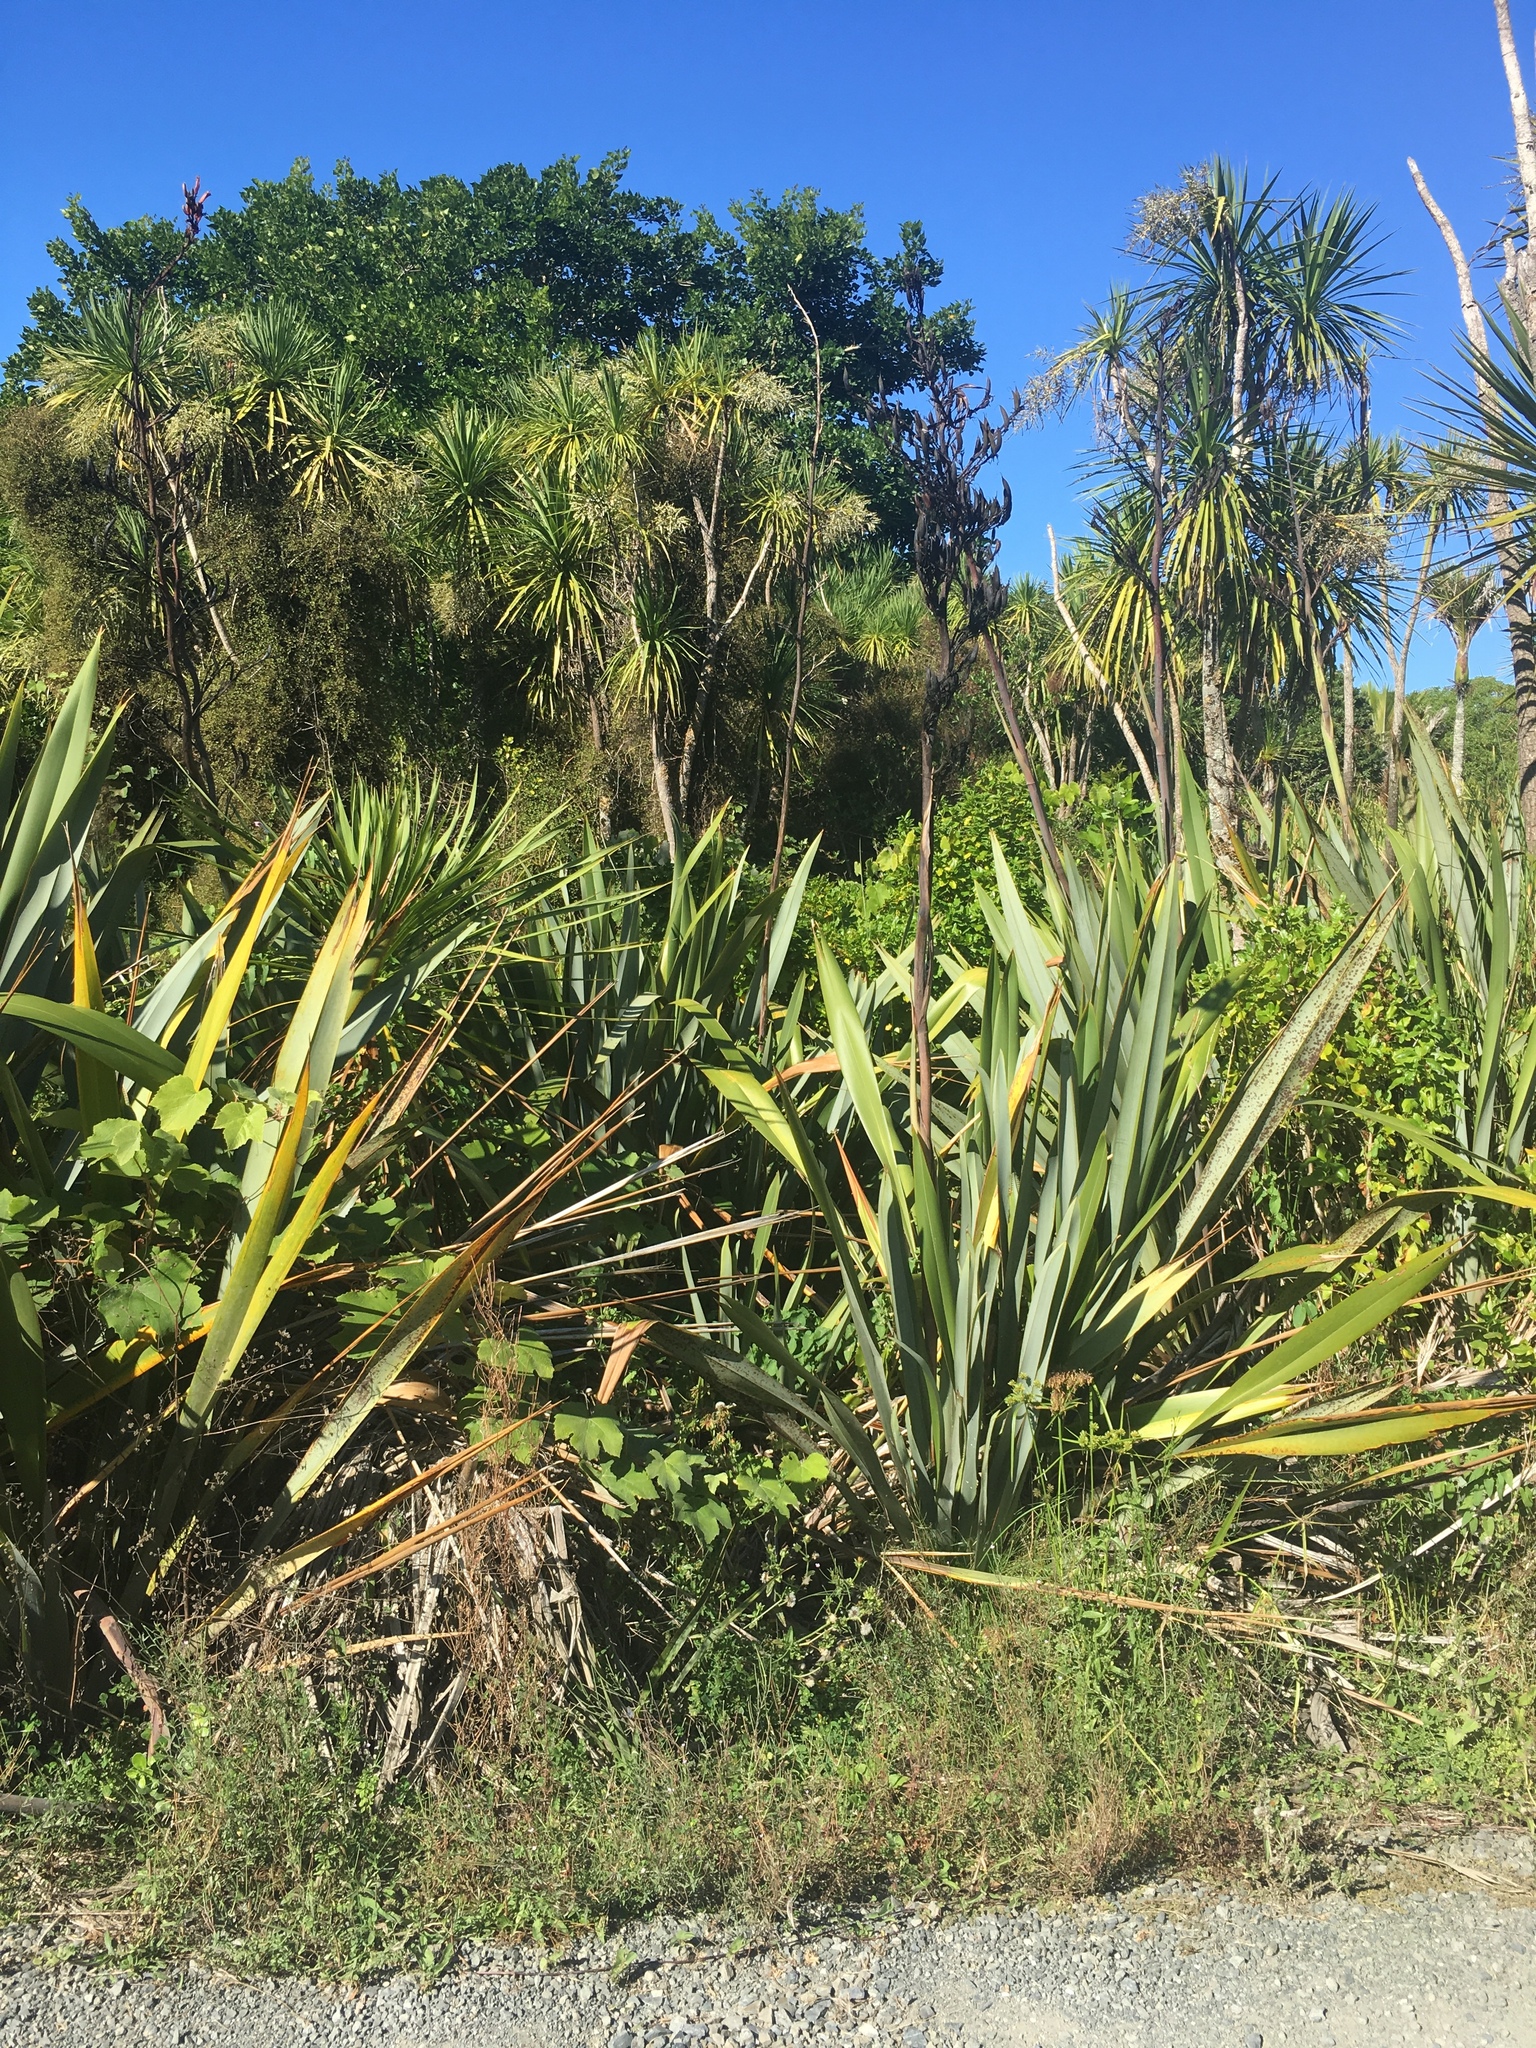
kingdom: Plantae
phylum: Tracheophyta
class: Liliopsida
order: Asparagales
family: Asphodelaceae
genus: Phormium
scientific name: Phormium tenax
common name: New zealand flax
